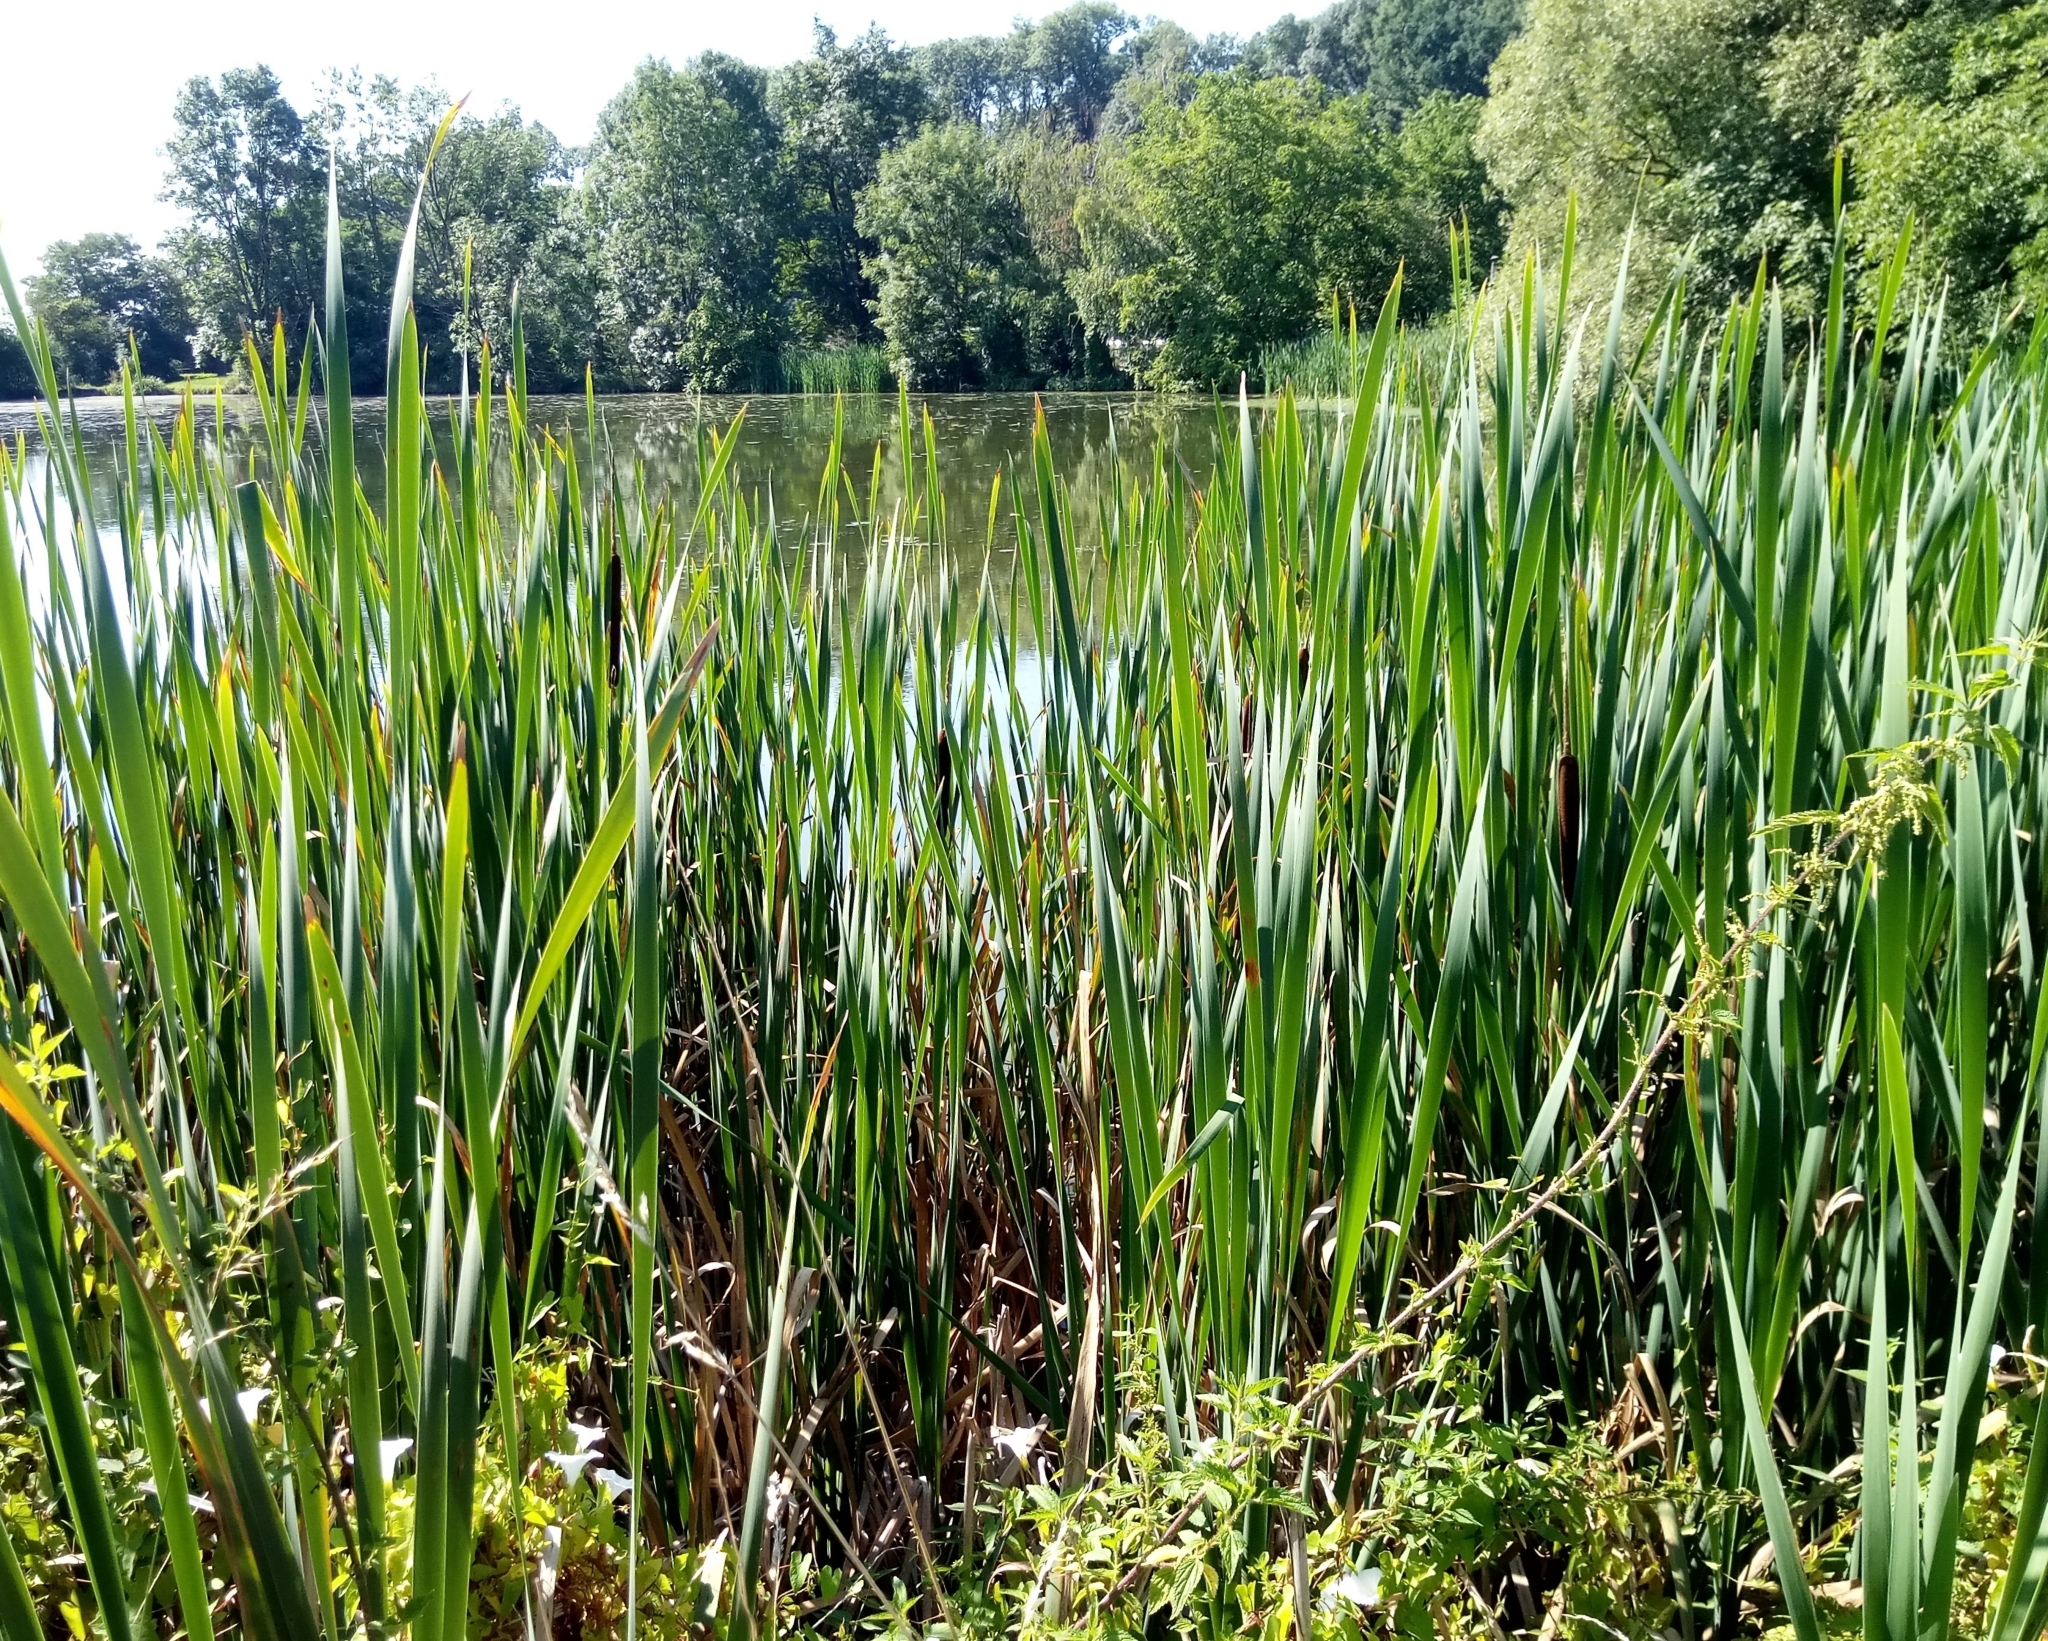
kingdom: Plantae
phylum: Tracheophyta
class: Liliopsida
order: Poales
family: Typhaceae
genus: Typha
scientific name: Typha latifolia
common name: Broadleaf cattail
